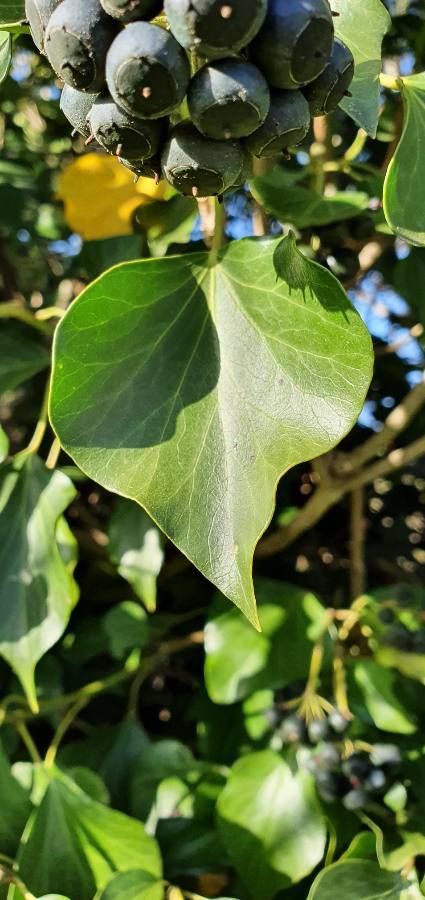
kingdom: Plantae
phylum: Tracheophyta
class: Magnoliopsida
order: Apiales
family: Araliaceae
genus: Hedera
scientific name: Hedera helix
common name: Ivy
